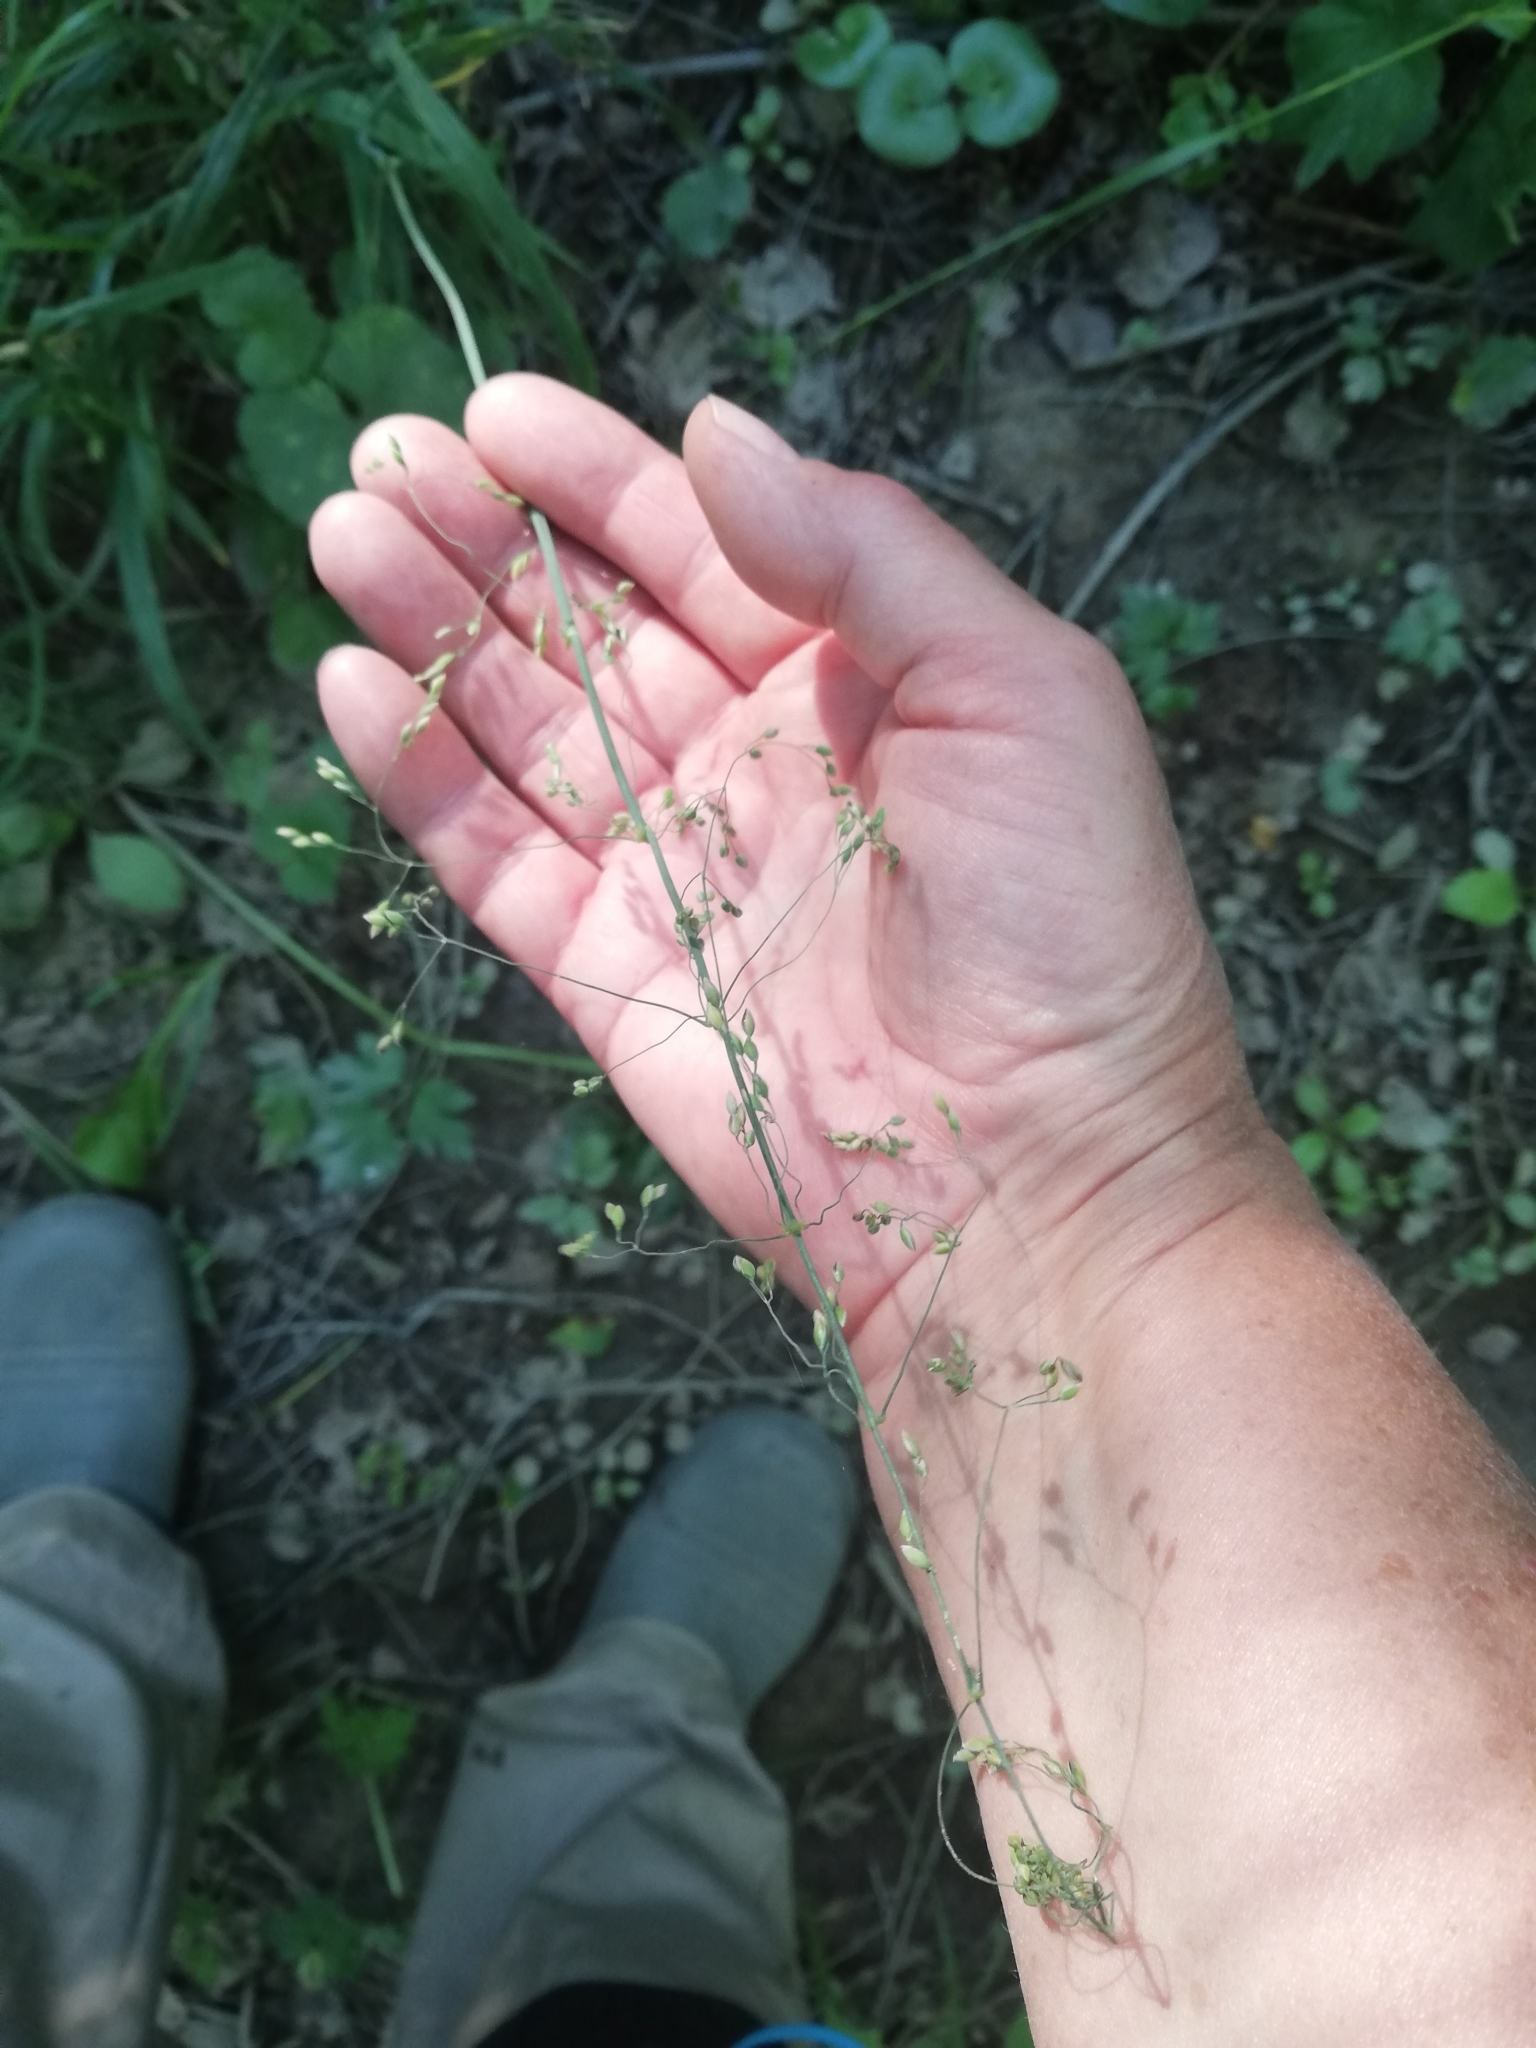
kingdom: Plantae
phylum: Tracheophyta
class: Liliopsida
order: Poales
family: Poaceae
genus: Milium
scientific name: Milium effusum
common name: Wood millet
